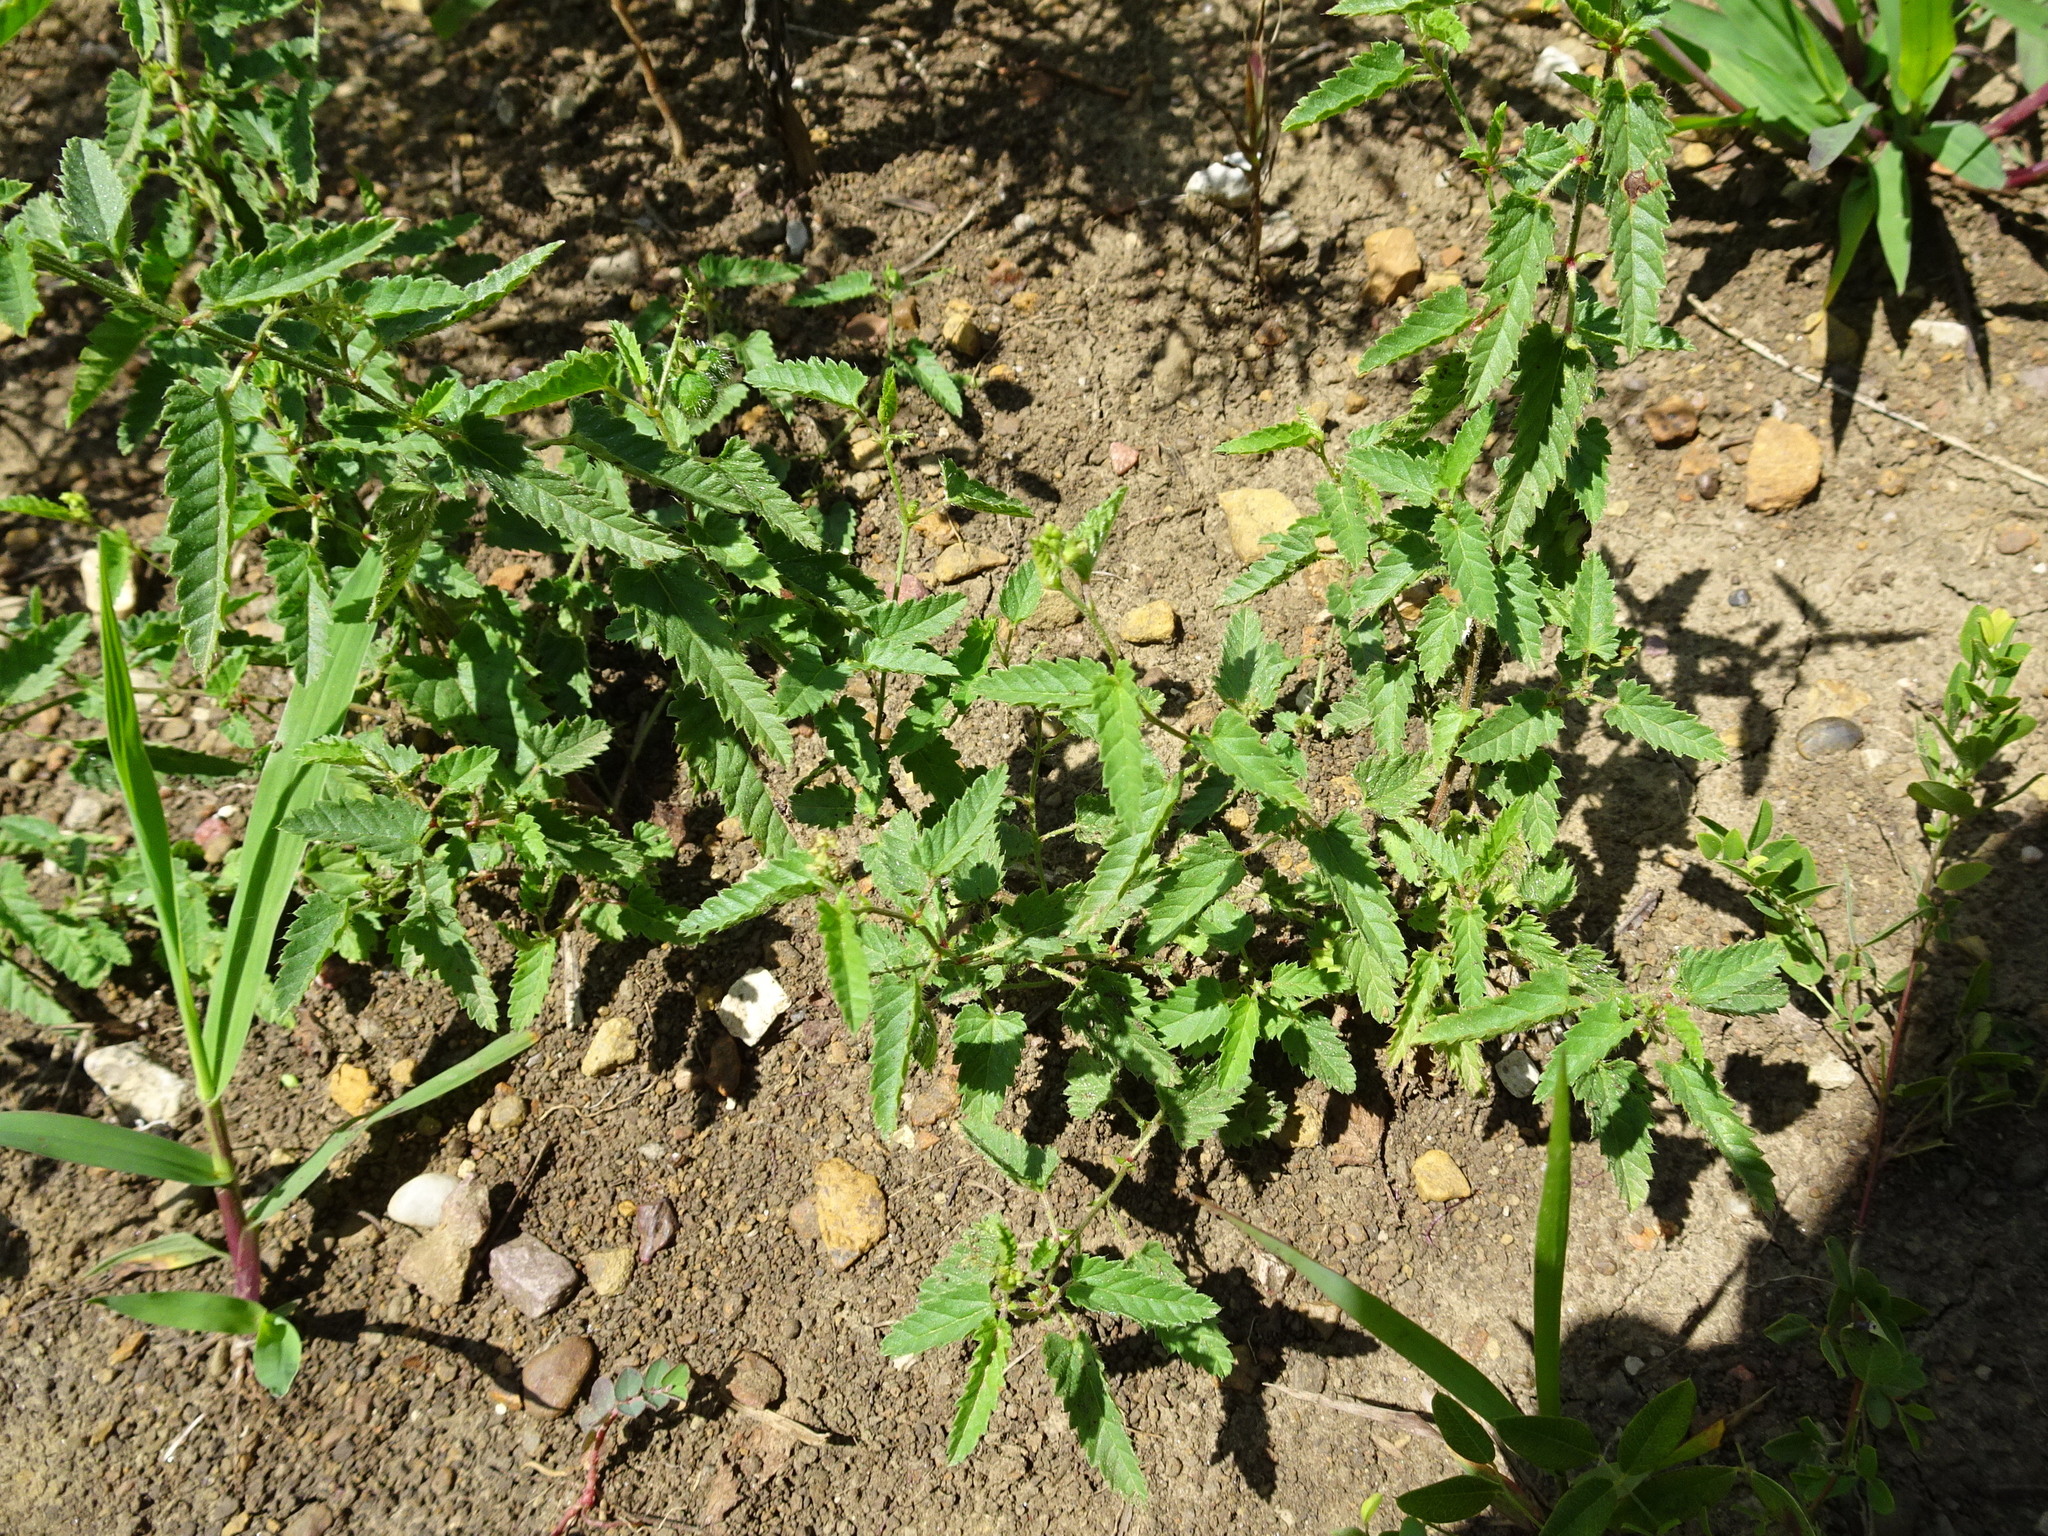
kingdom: Plantae
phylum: Tracheophyta
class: Magnoliopsida
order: Malpighiales
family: Euphorbiaceae
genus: Tragia
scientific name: Tragia betonicifolia
